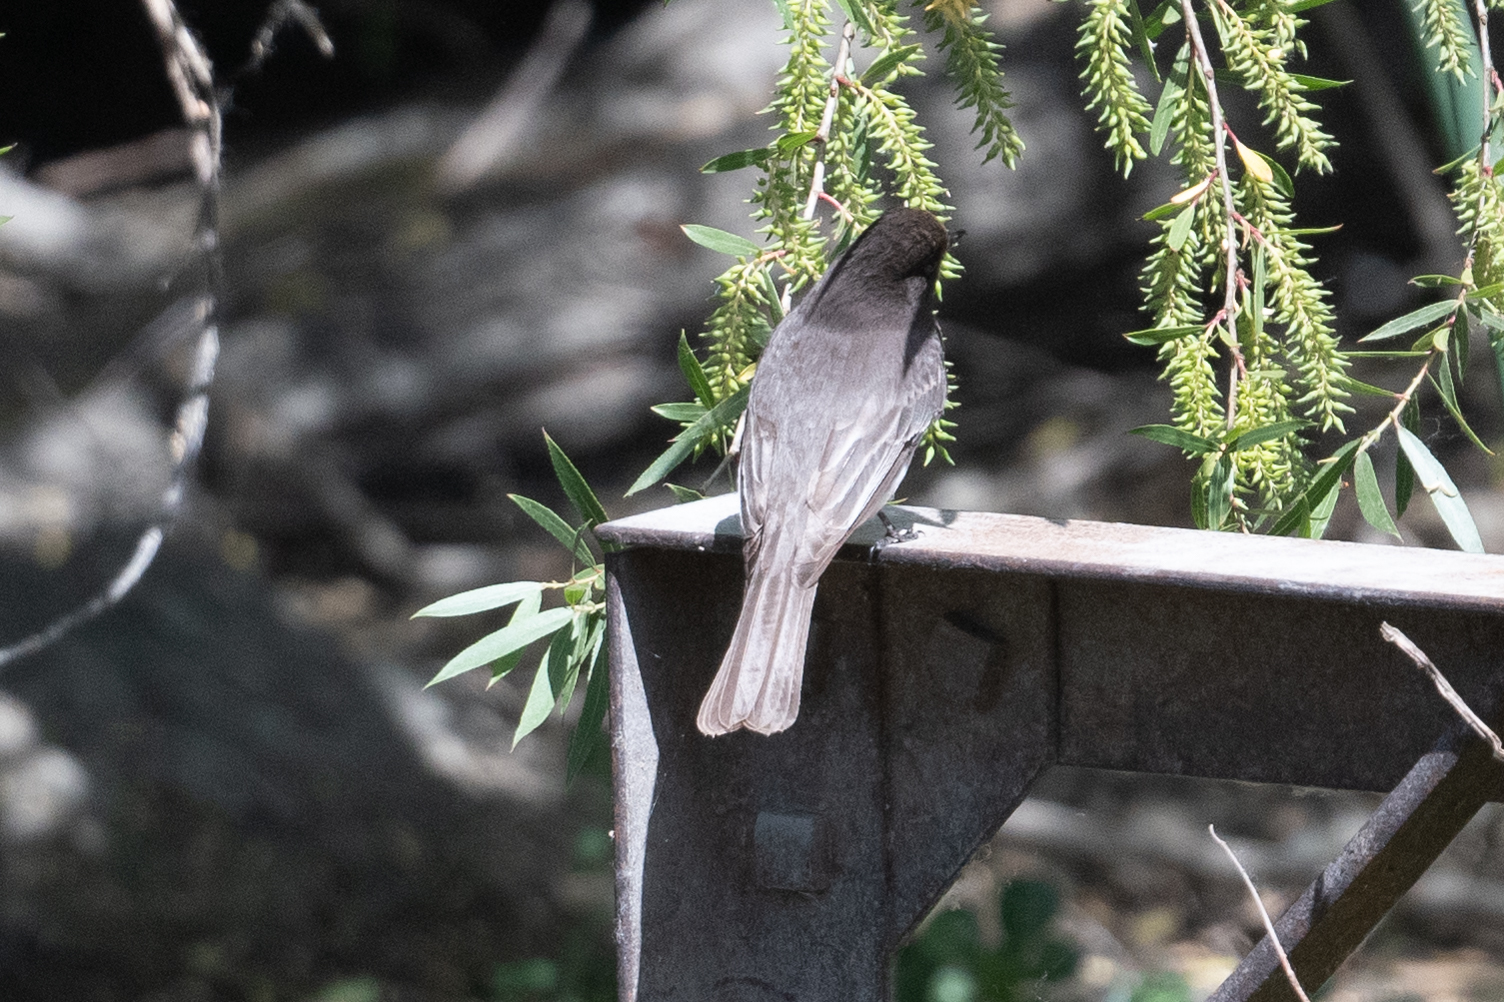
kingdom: Animalia
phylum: Chordata
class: Aves
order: Passeriformes
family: Tyrannidae
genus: Sayornis
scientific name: Sayornis nigricans
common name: Black phoebe
